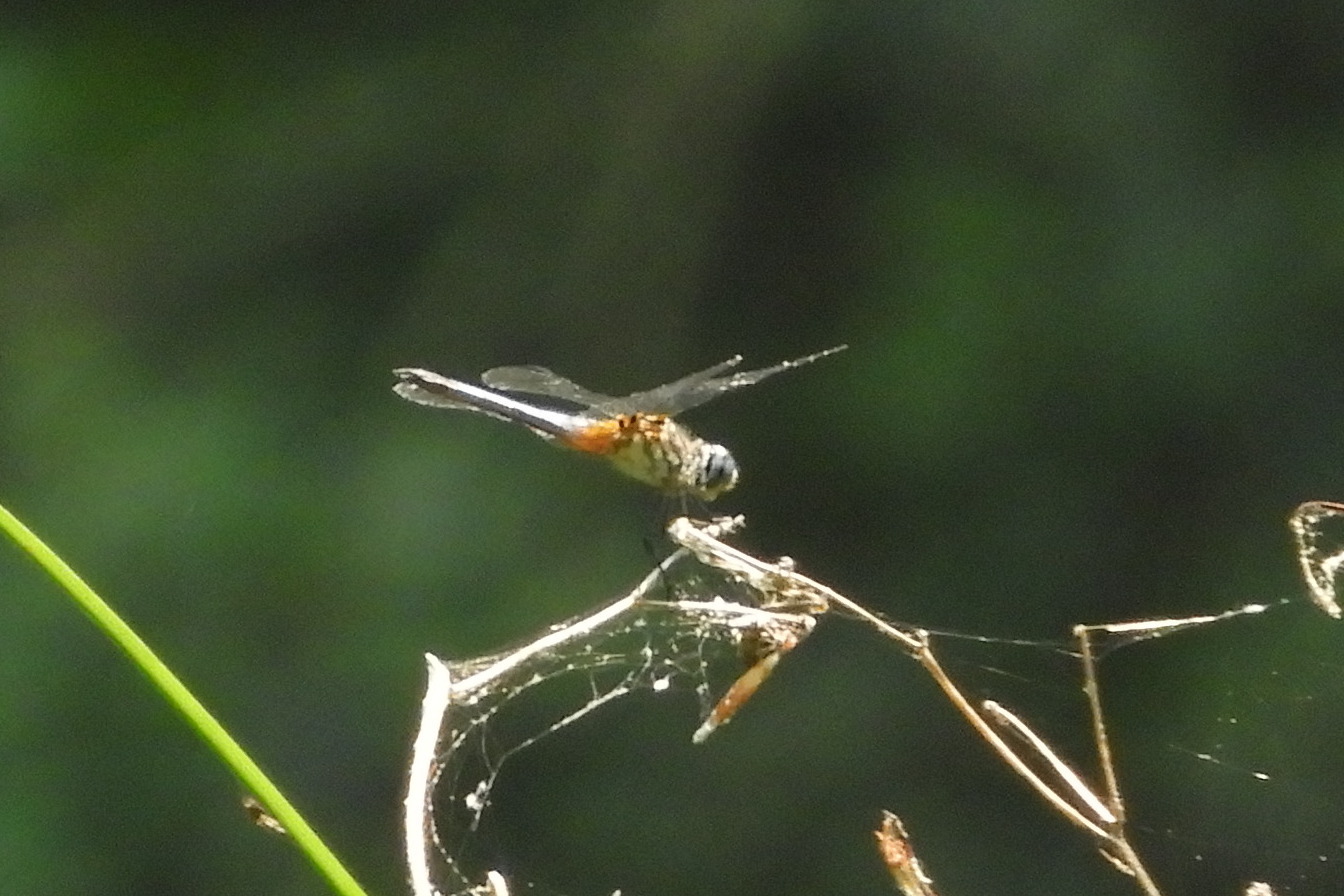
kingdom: Animalia
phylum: Arthropoda
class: Insecta
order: Odonata
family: Libellulidae
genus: Pachydiplax
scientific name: Pachydiplax longipennis
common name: Blue dasher
